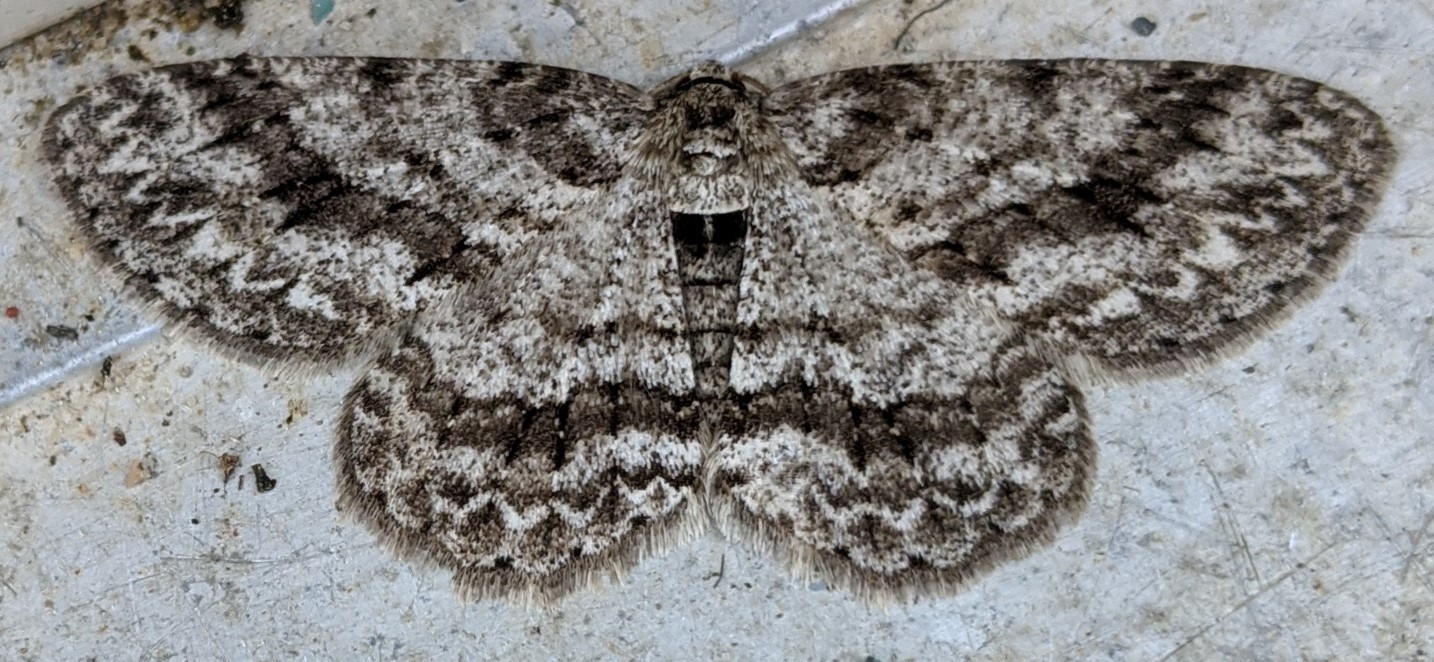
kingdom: Animalia
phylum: Arthropoda
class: Insecta
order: Lepidoptera
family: Geometridae
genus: Ectropis
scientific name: Ectropis crepuscularia
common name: Engrailed
